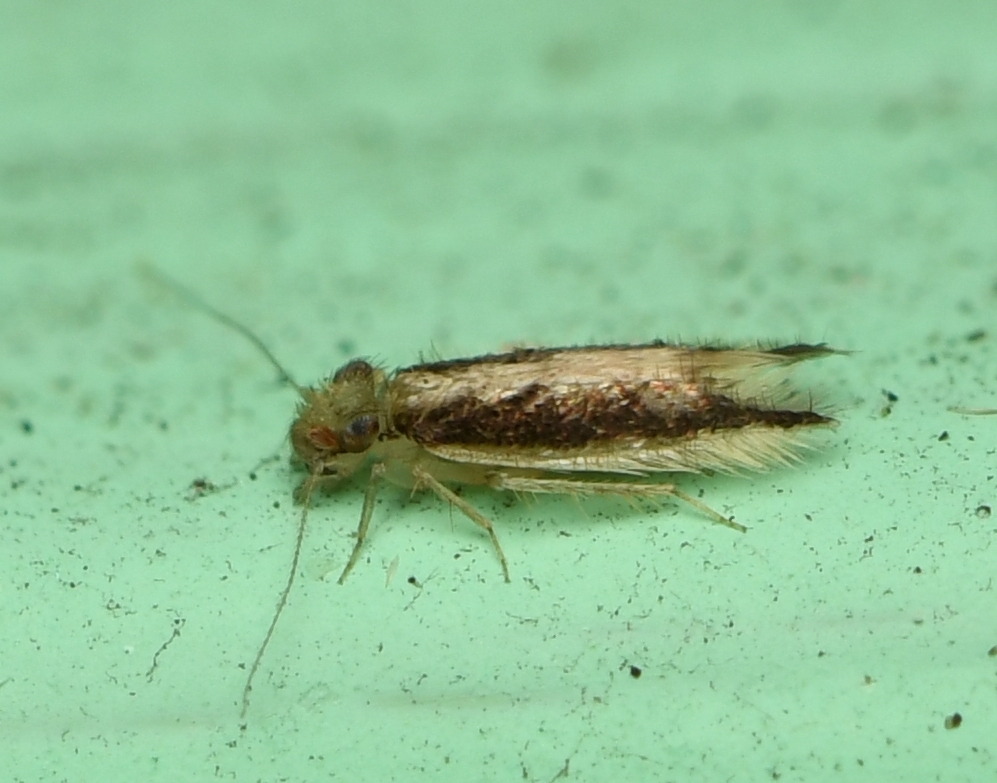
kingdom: Animalia
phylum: Arthropoda
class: Insecta
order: Psocodea
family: Lepidopsocidae
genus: Echmepteryx
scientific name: Echmepteryx madagascariensis
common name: Bark lice
